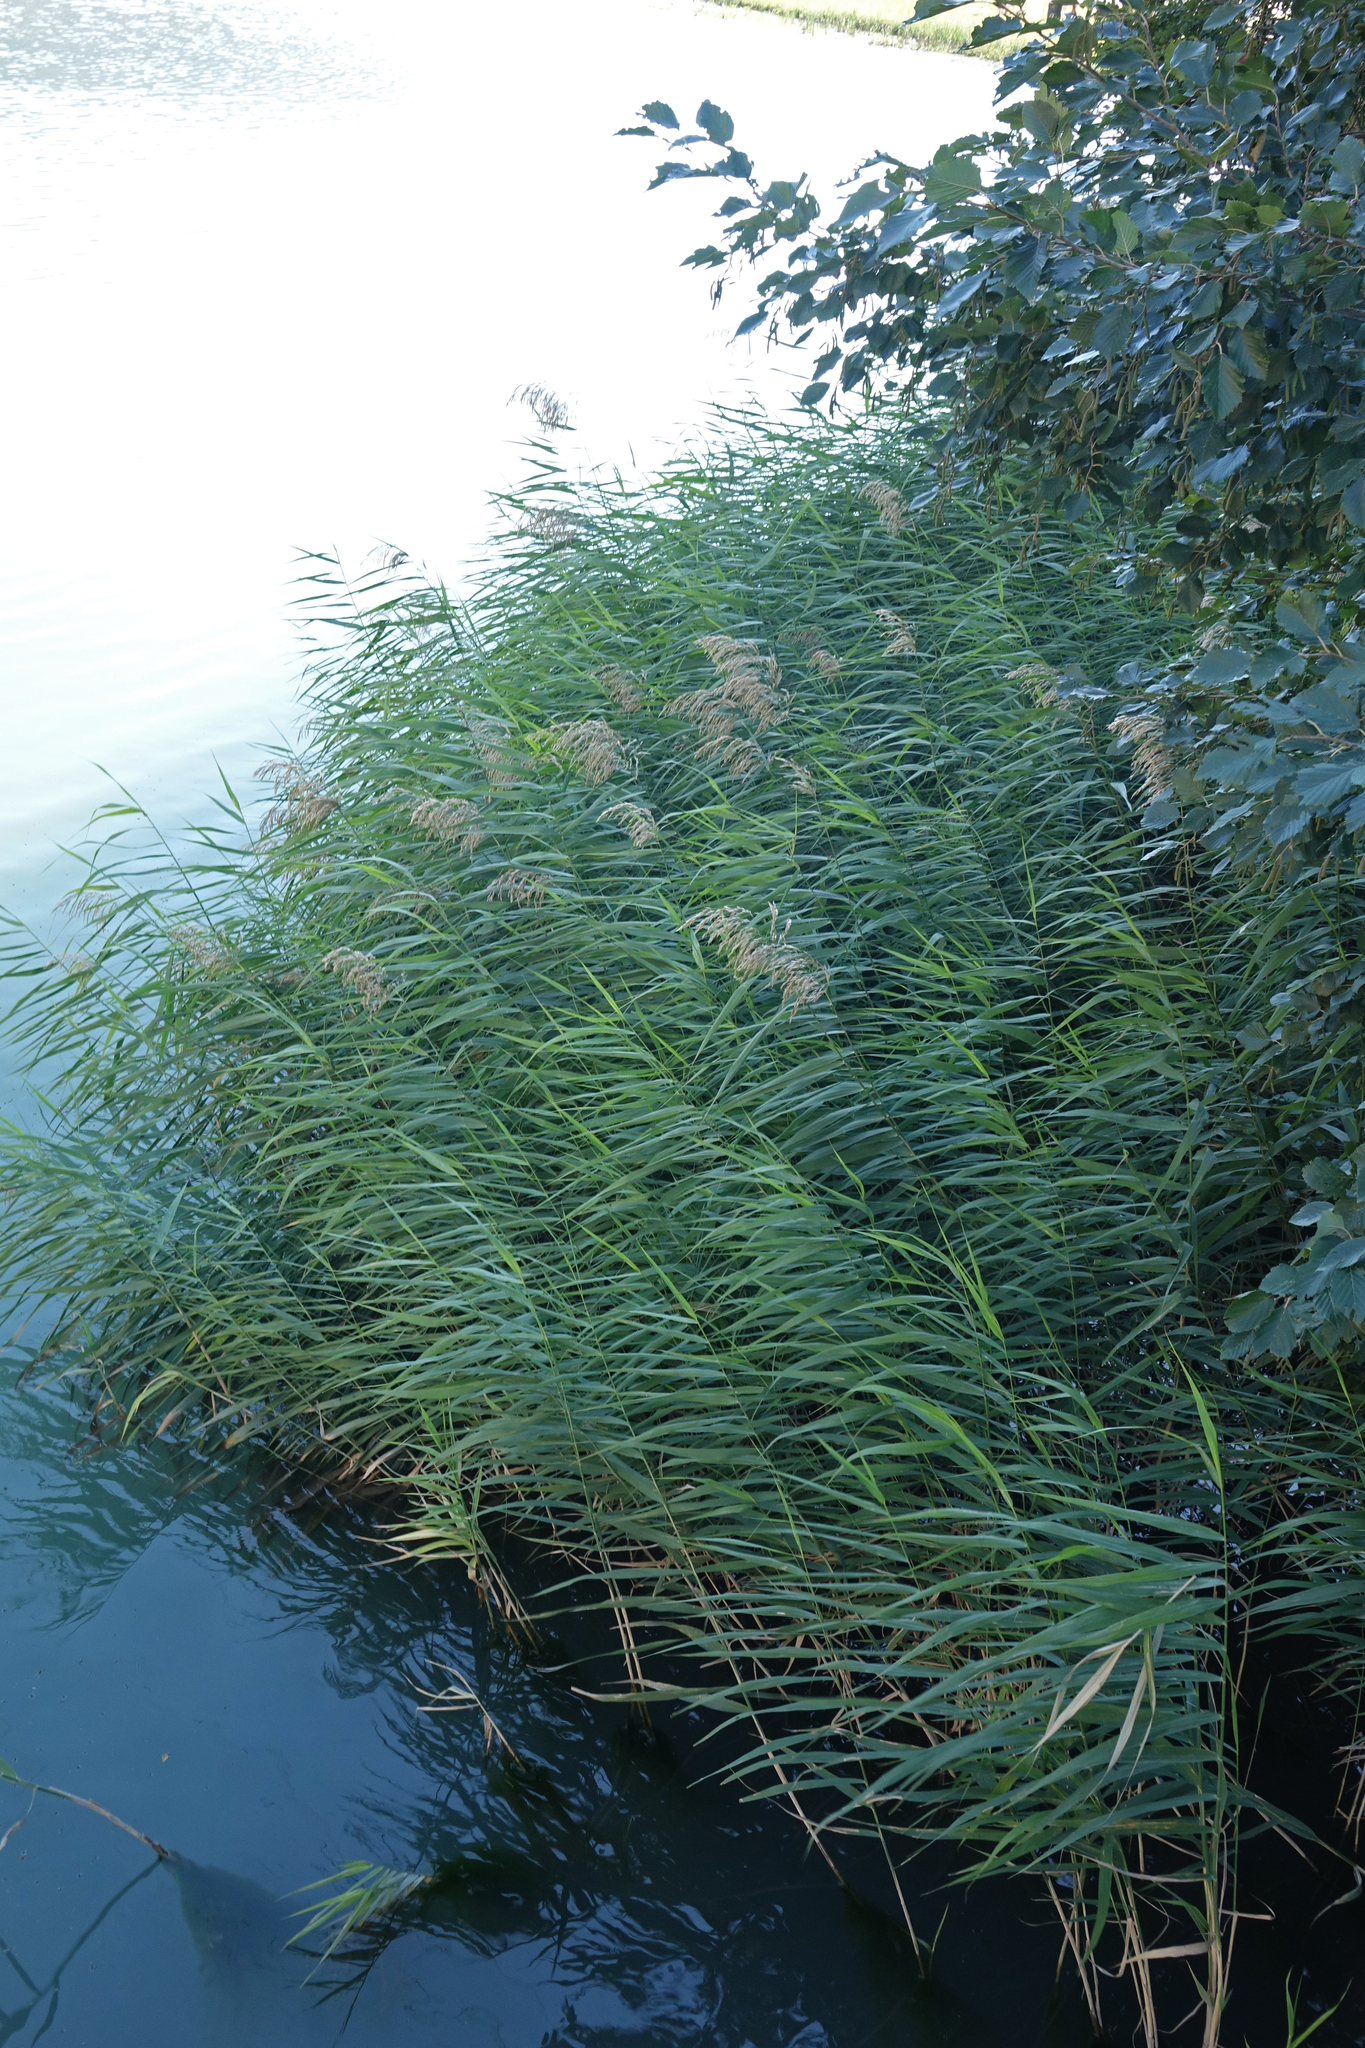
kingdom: Plantae
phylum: Tracheophyta
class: Liliopsida
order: Poales
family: Poaceae
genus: Phragmites
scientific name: Phragmites australis
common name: Common reed
